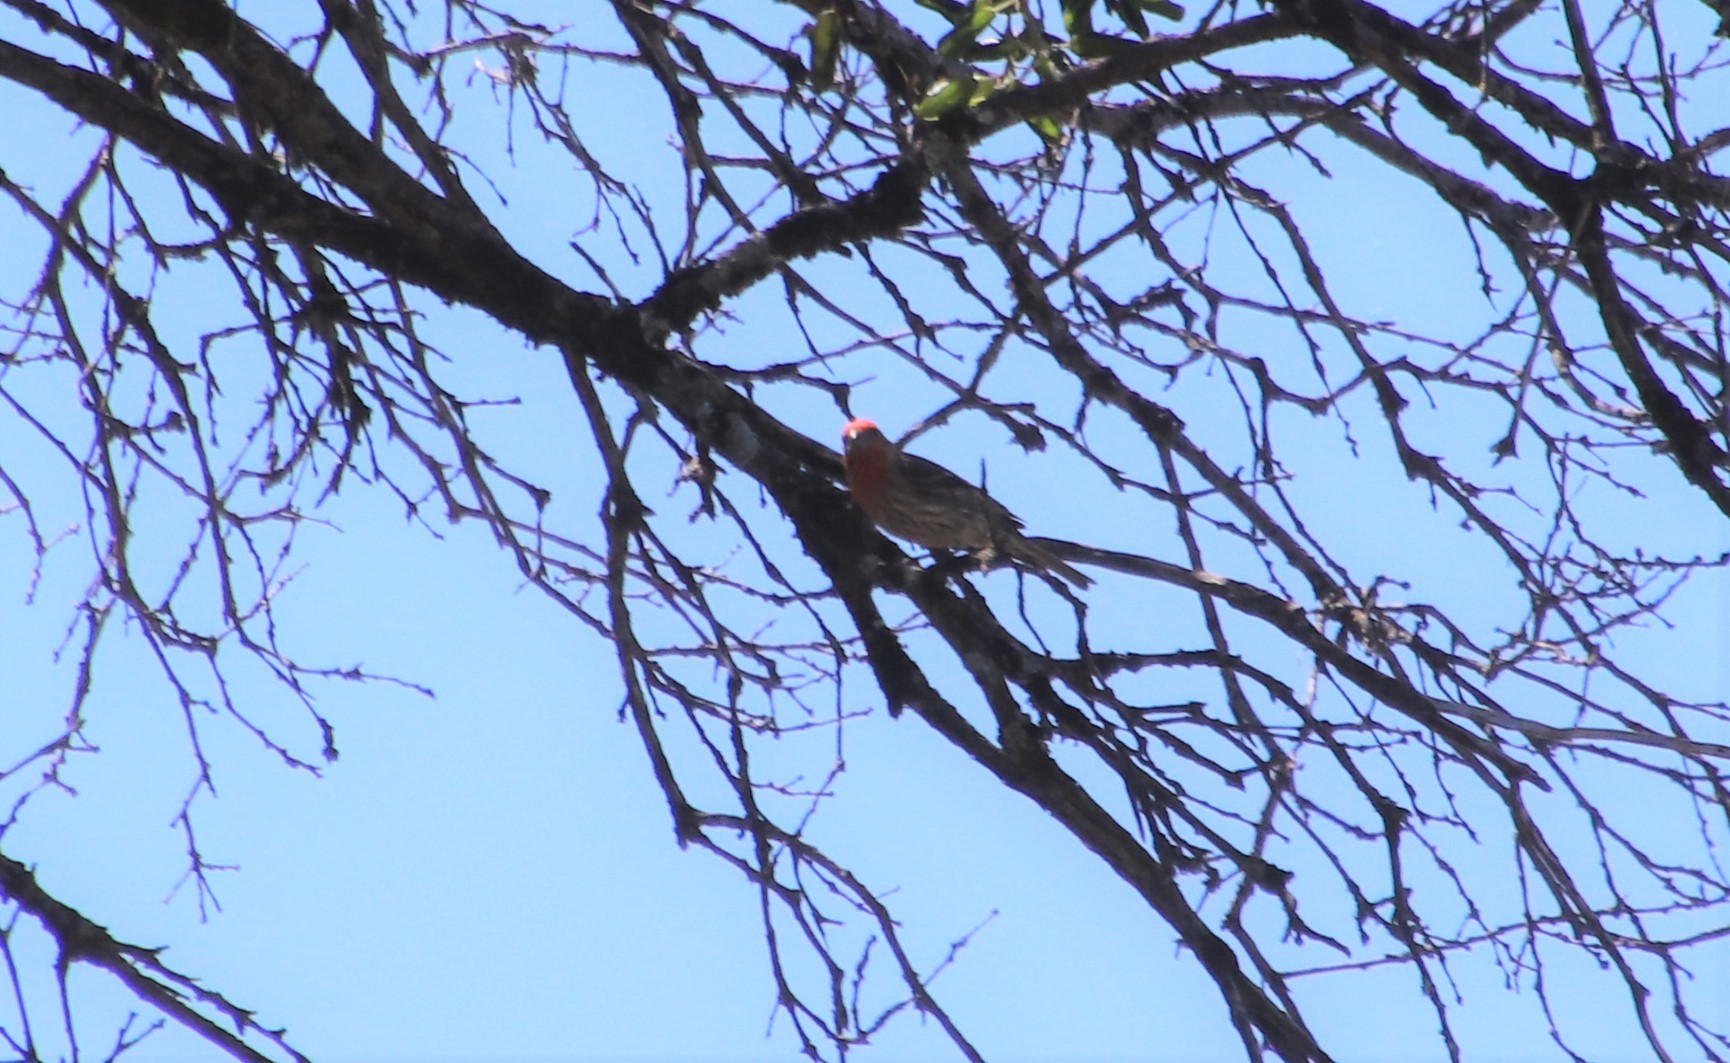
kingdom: Animalia
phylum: Chordata
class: Aves
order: Passeriformes
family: Fringillidae
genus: Haemorhous
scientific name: Haemorhous mexicanus
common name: House finch
